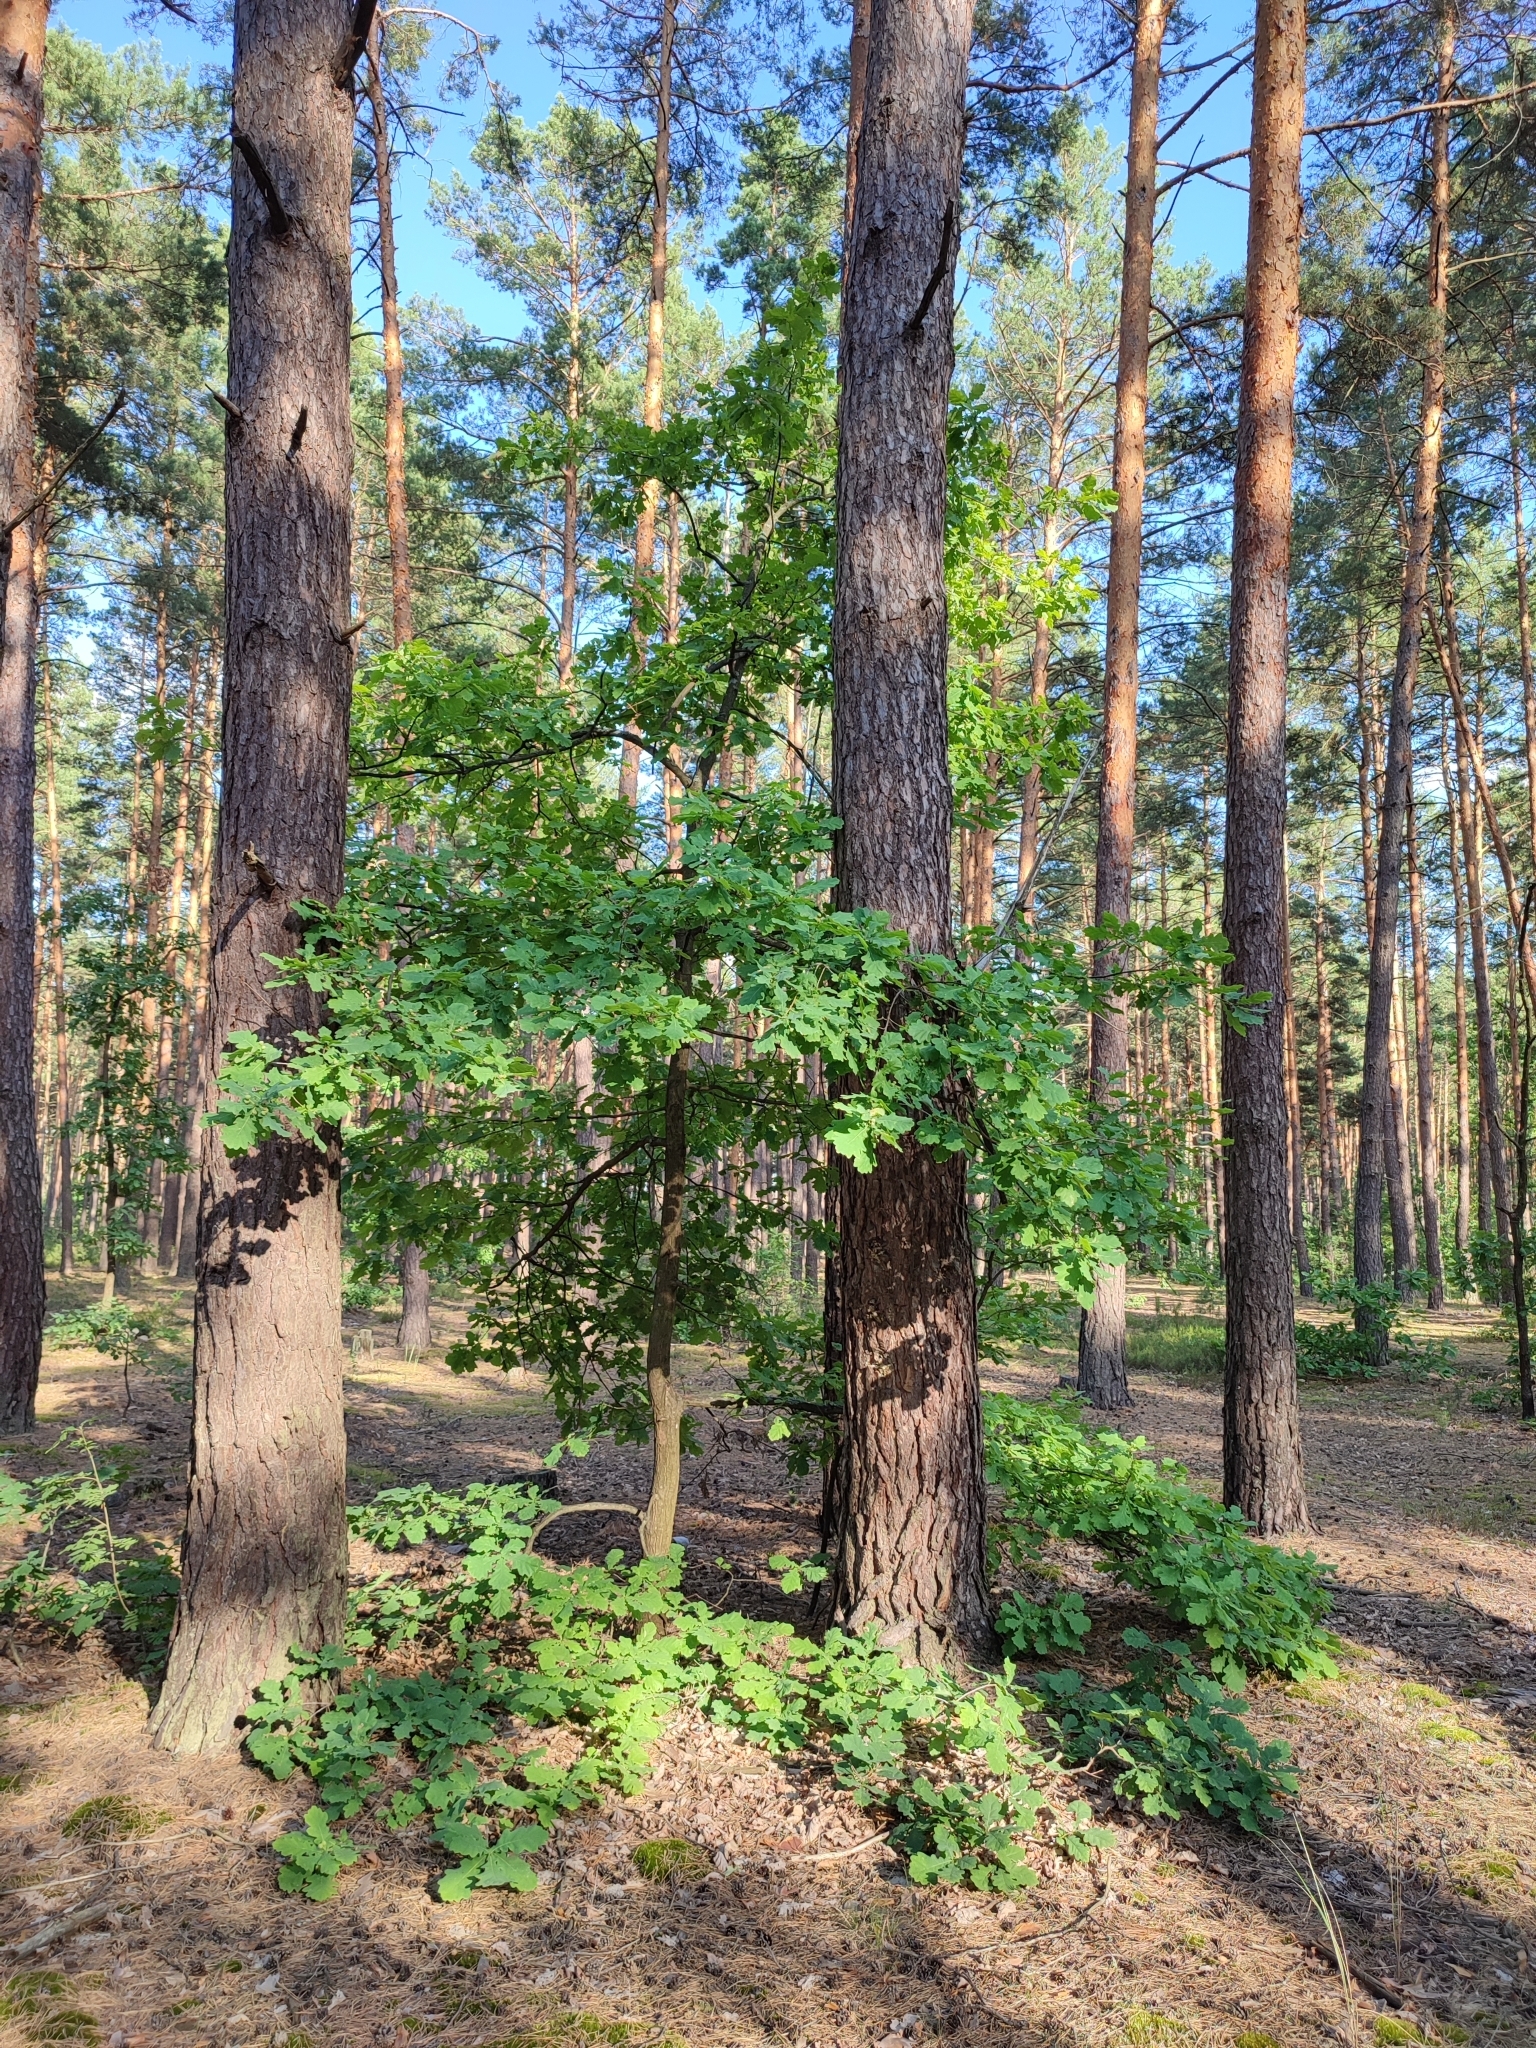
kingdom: Plantae
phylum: Tracheophyta
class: Magnoliopsida
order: Fagales
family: Fagaceae
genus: Quercus
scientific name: Quercus robur
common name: Pedunculate oak
